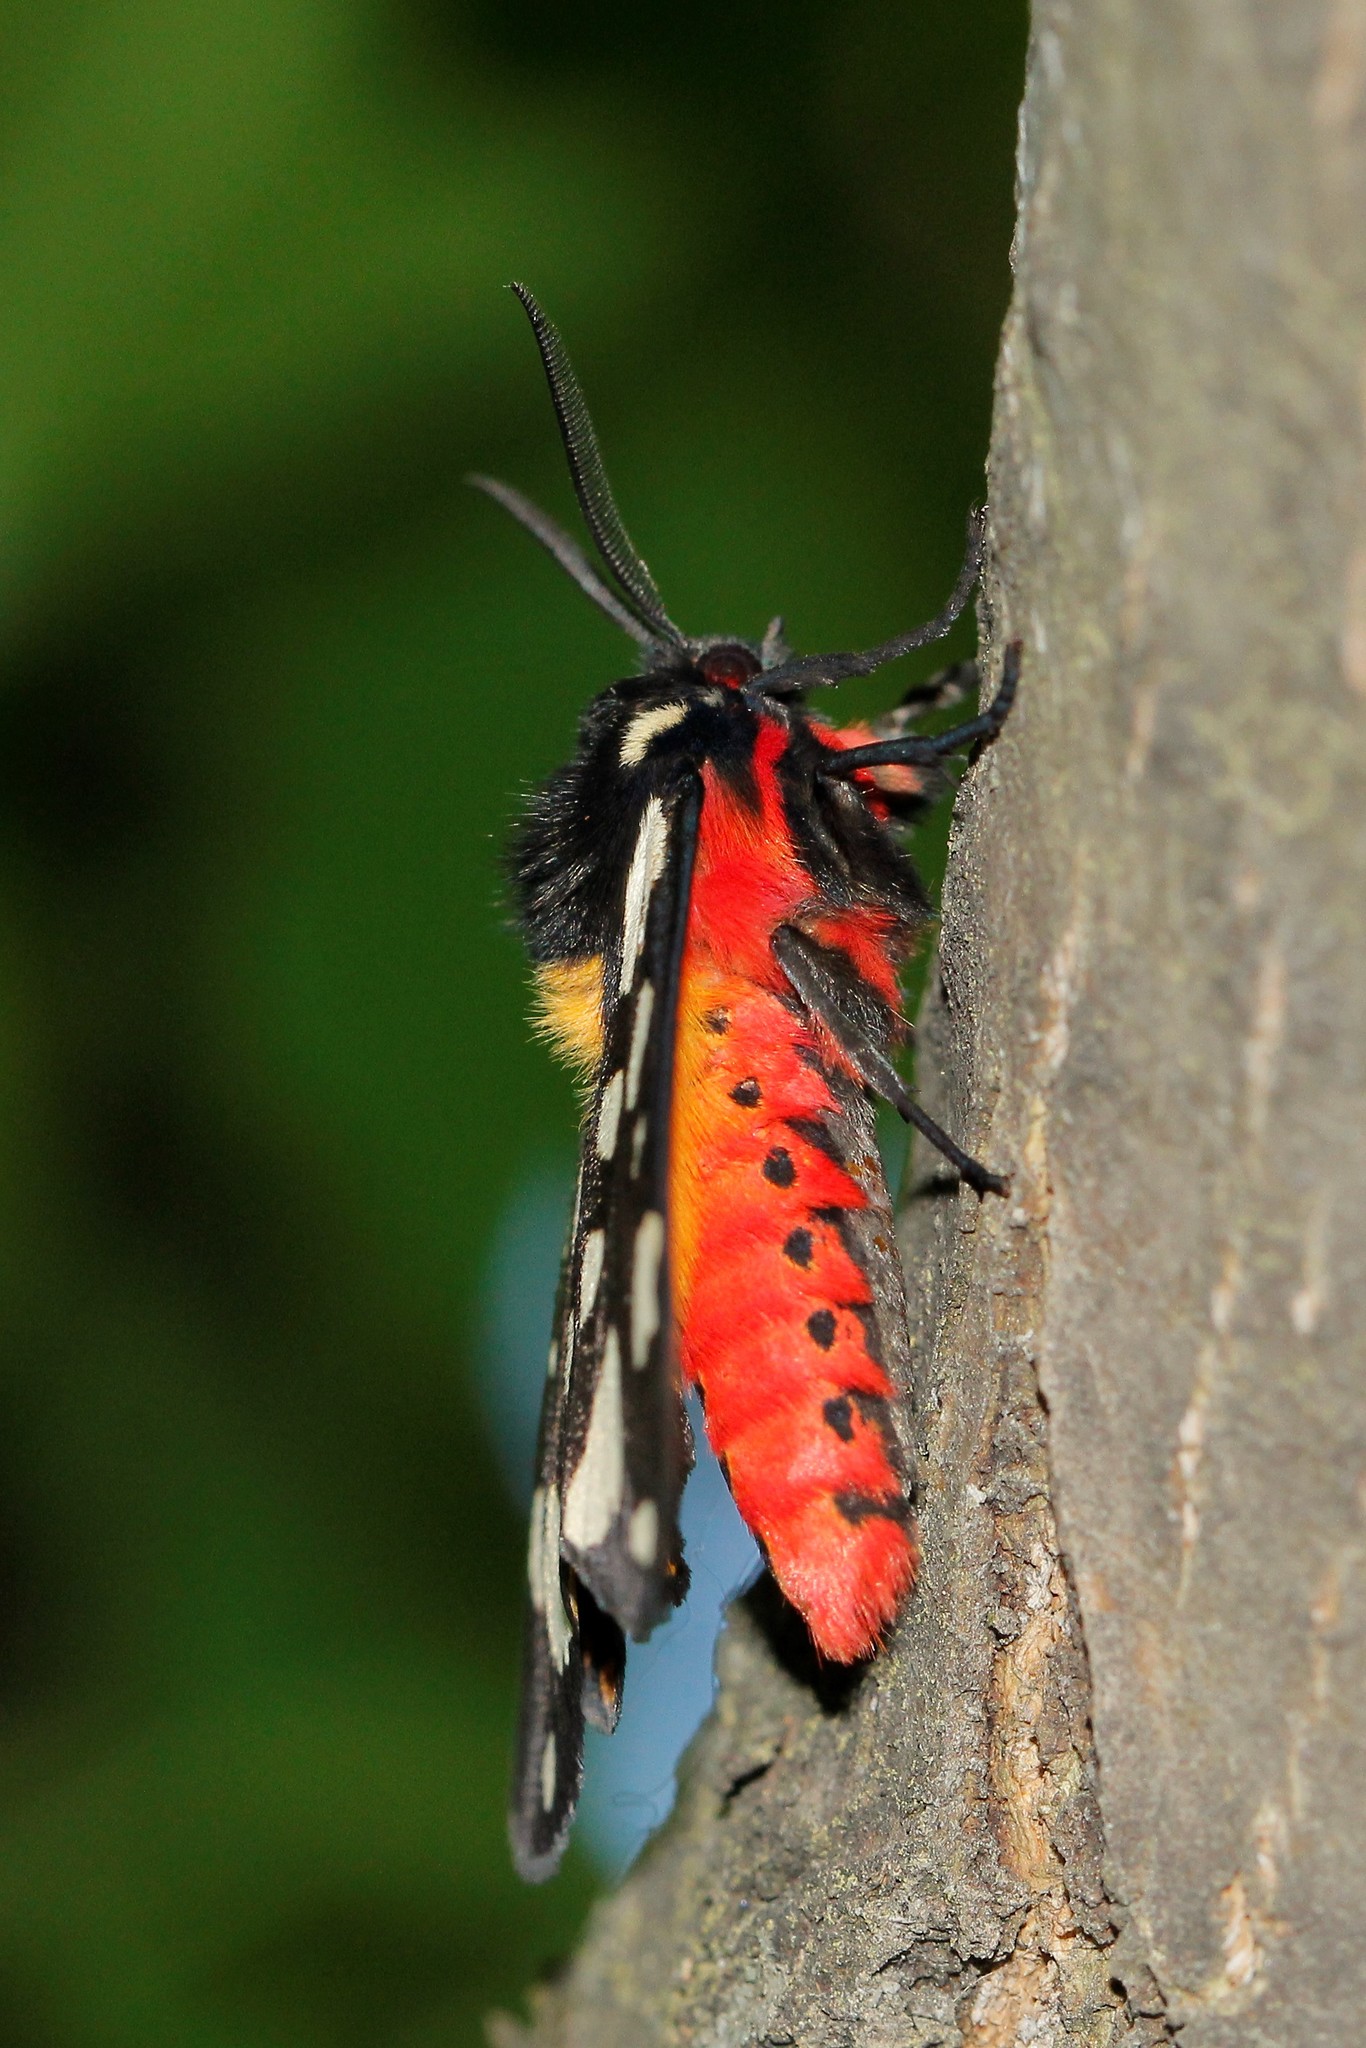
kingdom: Animalia
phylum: Arthropoda
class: Insecta
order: Lepidoptera
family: Erebidae
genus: Epicallia
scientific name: Epicallia villica
